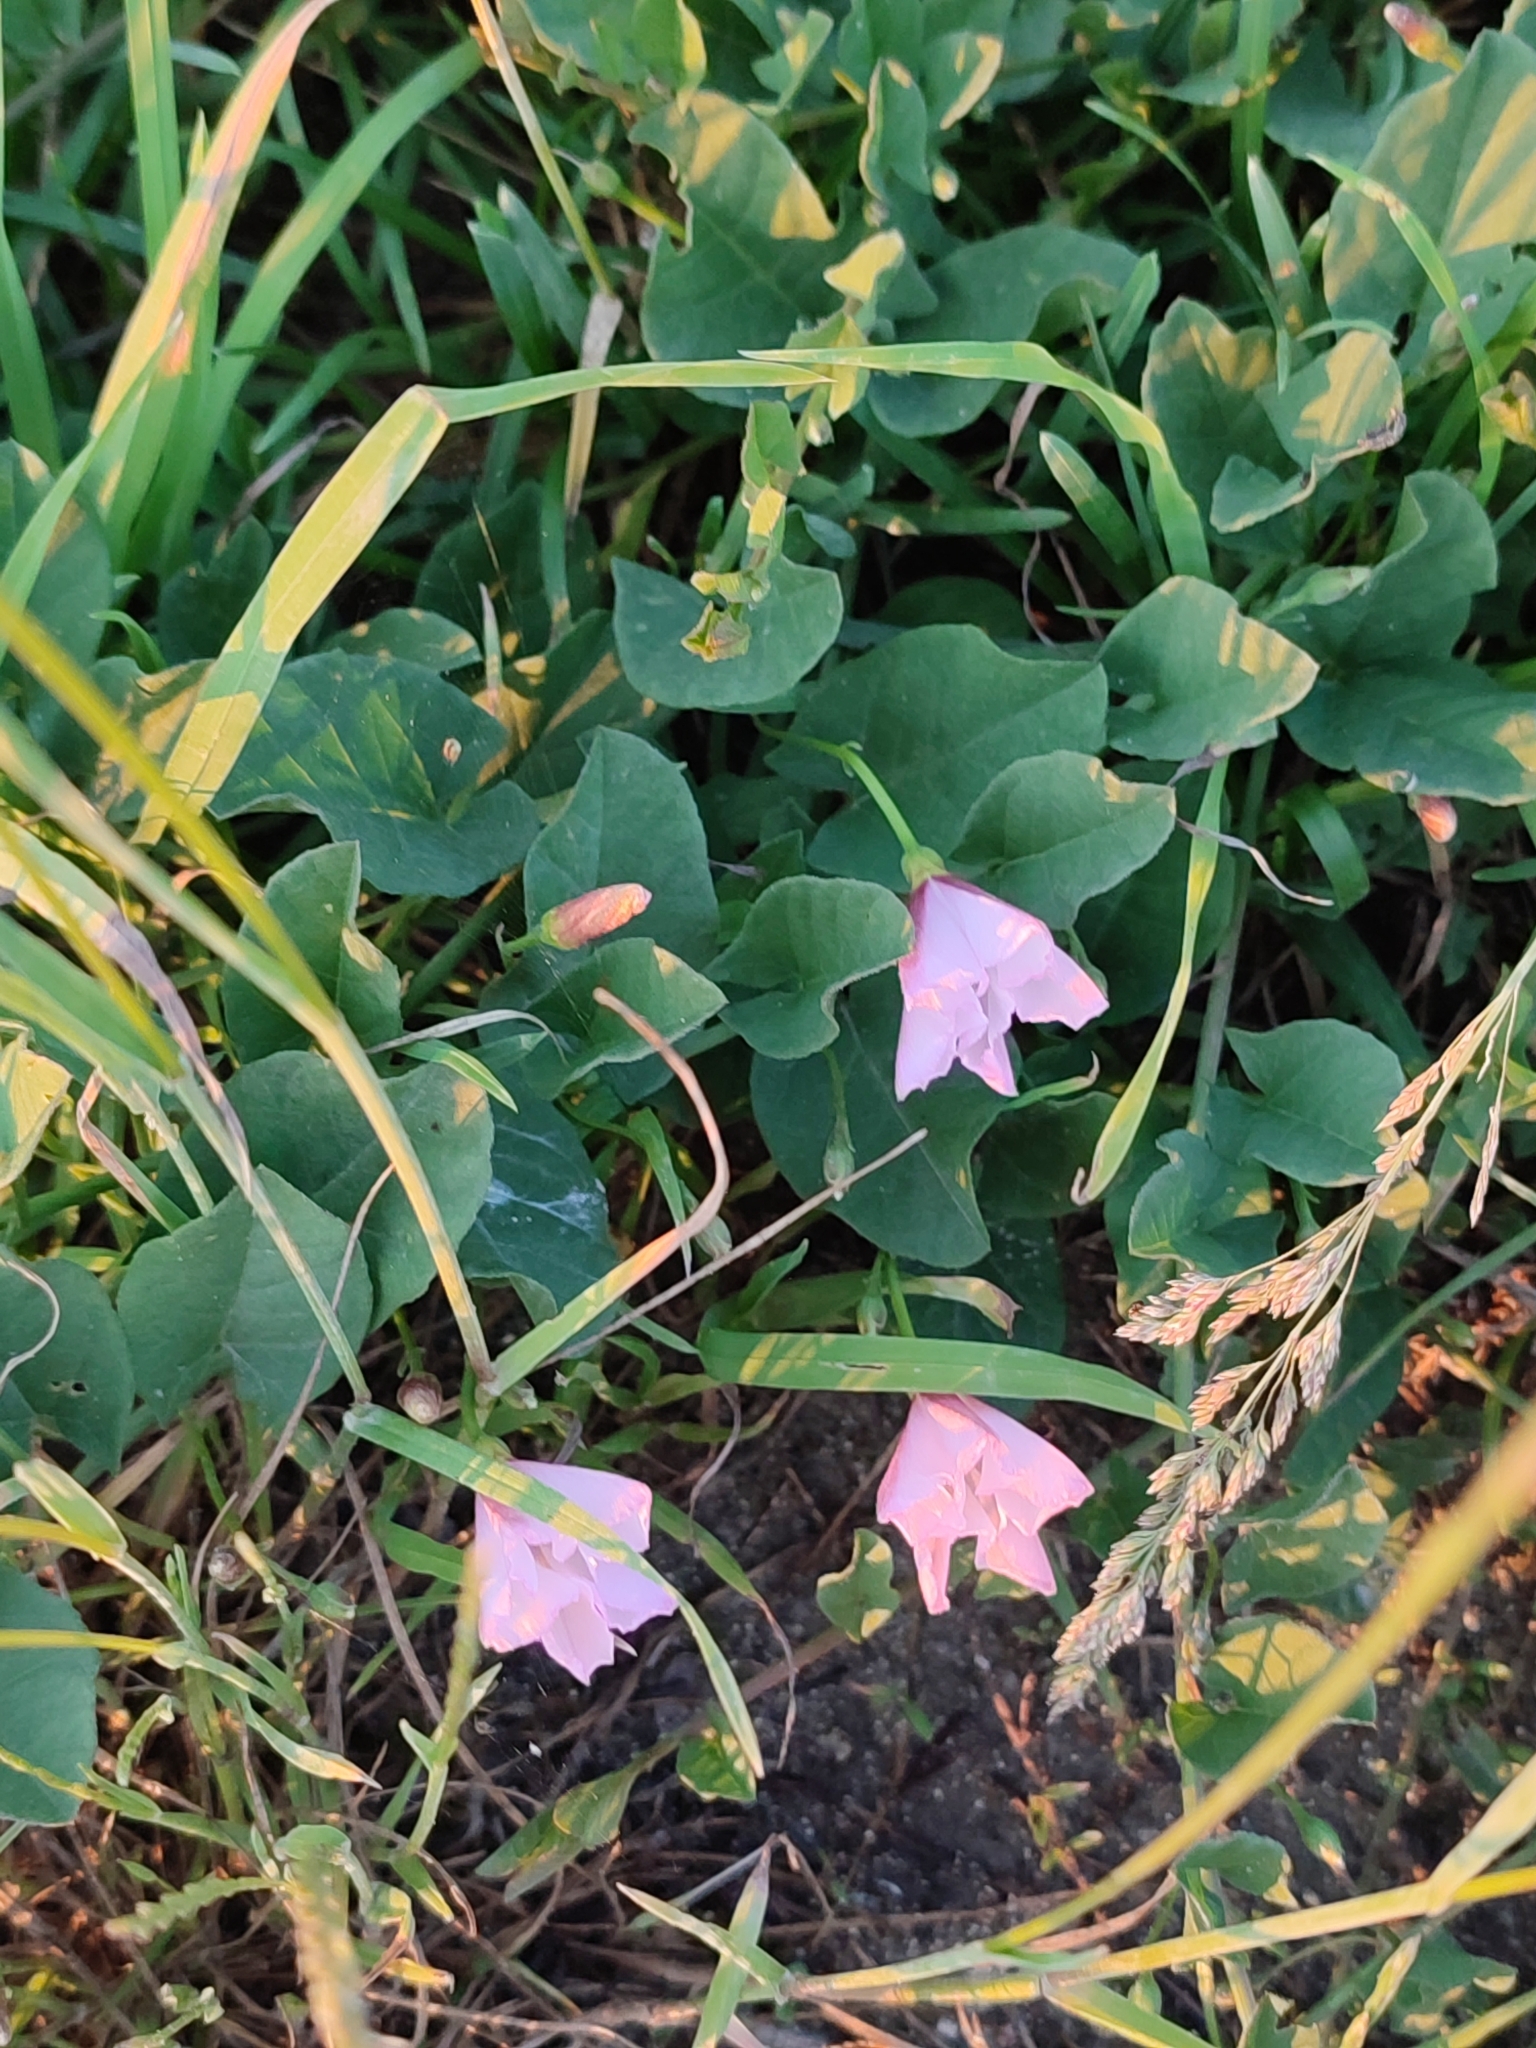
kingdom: Plantae
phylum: Tracheophyta
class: Magnoliopsida
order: Solanales
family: Convolvulaceae
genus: Convolvulus
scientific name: Convolvulus arvensis
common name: Field bindweed
